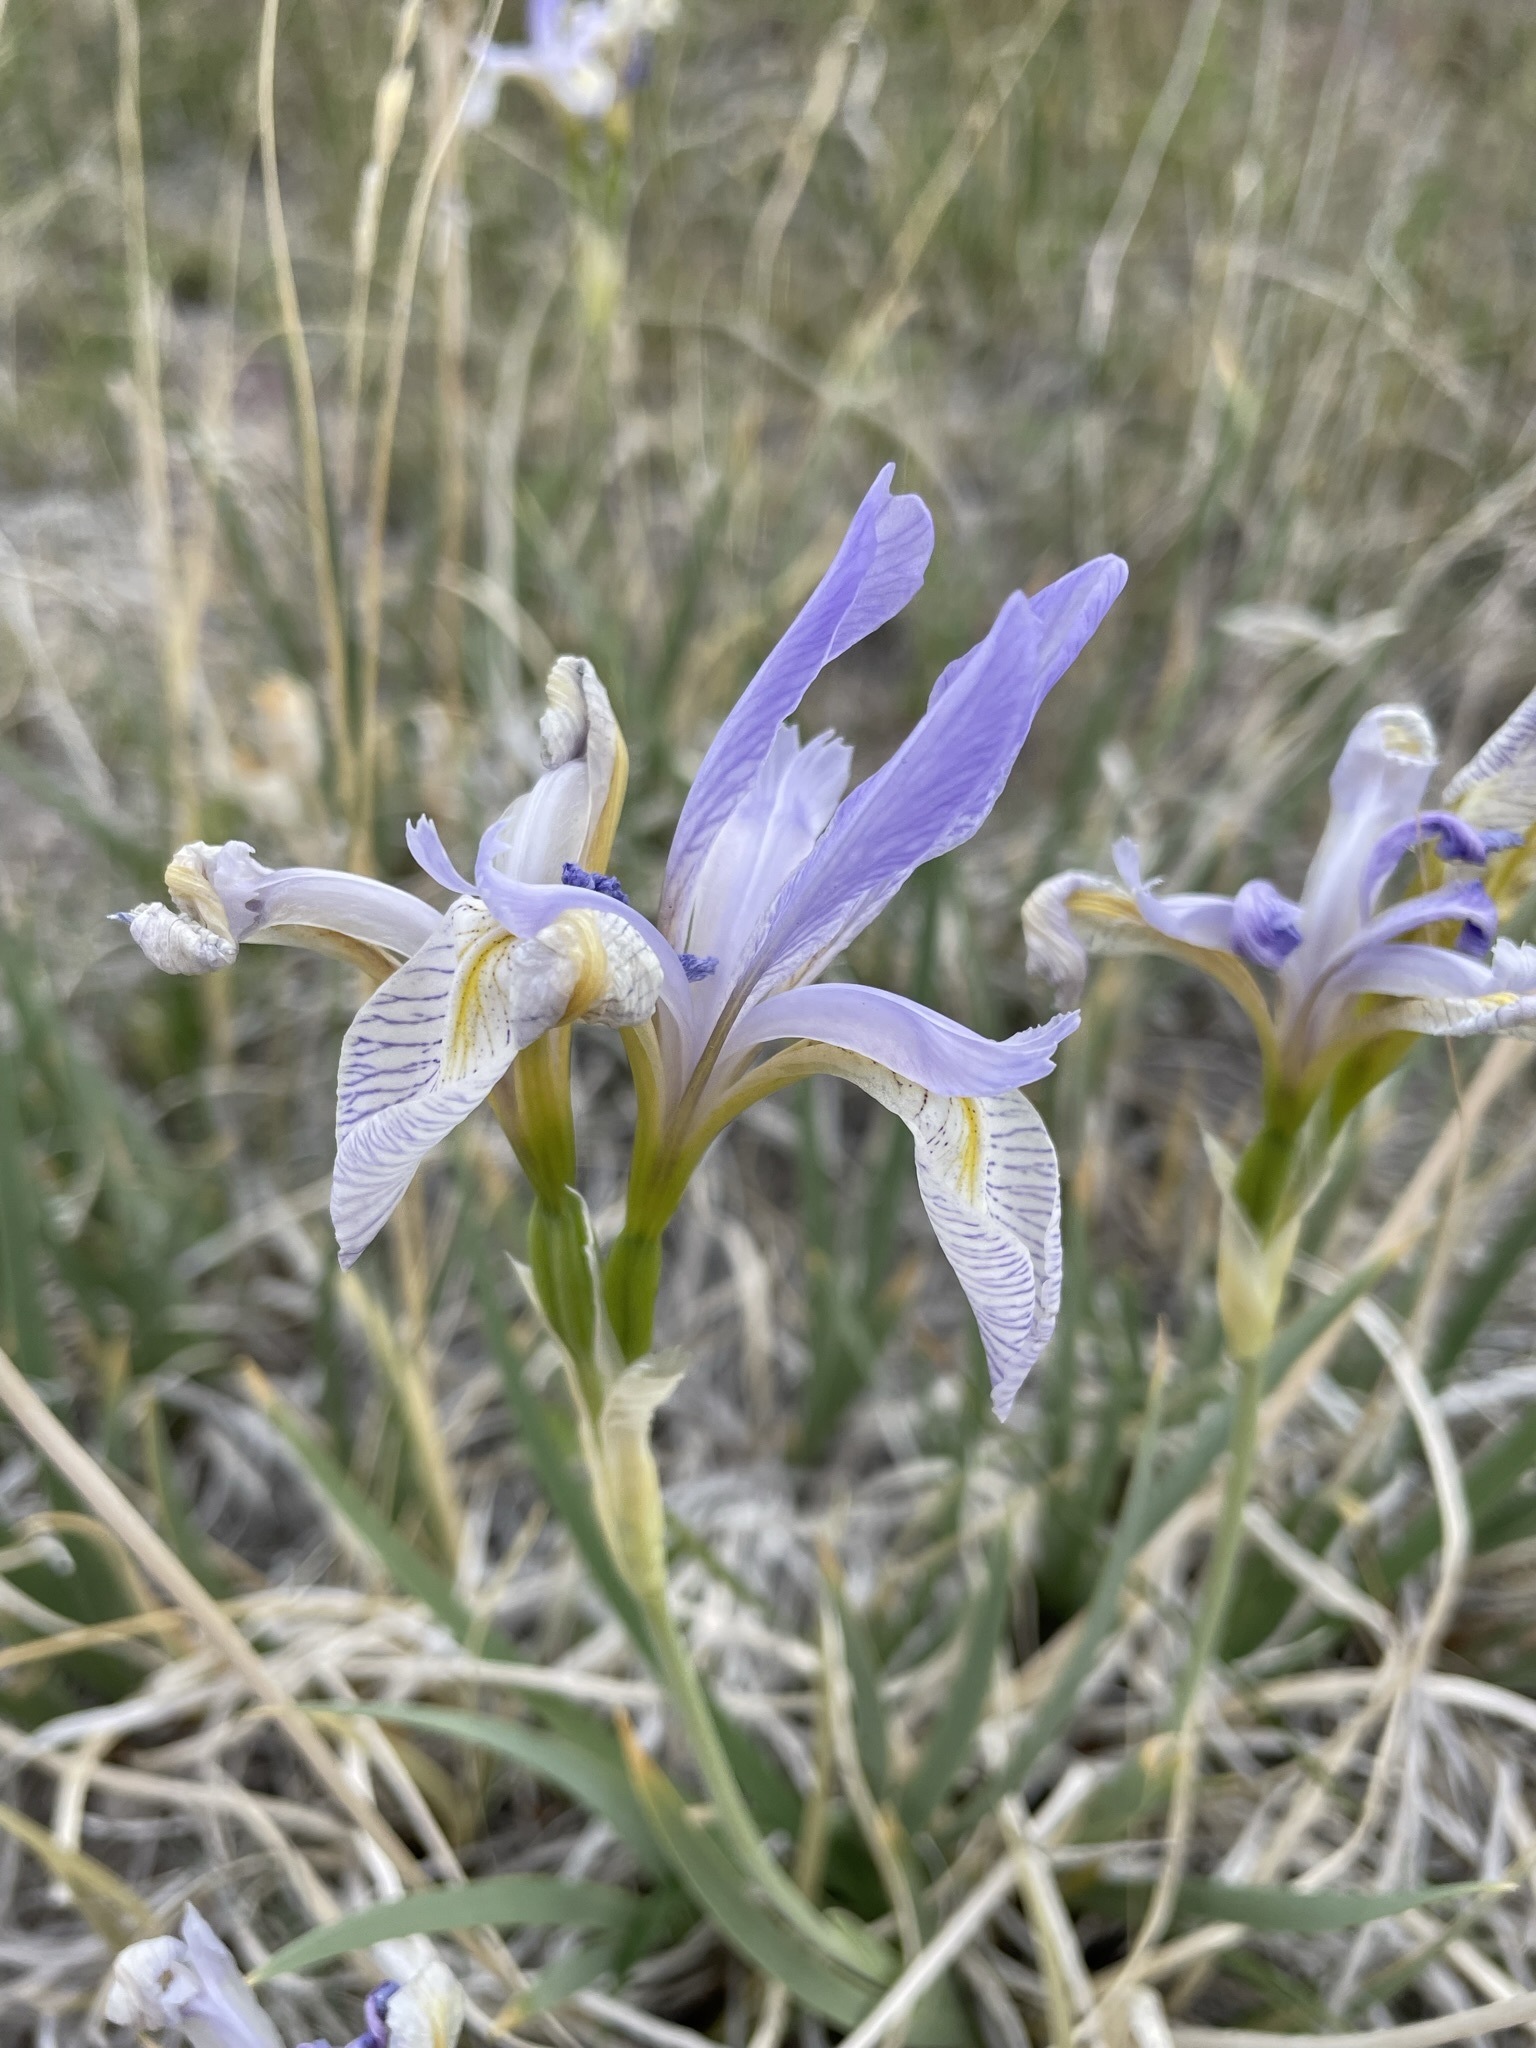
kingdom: Plantae
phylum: Tracheophyta
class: Liliopsida
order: Asparagales
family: Iridaceae
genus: Iris
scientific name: Iris missouriensis
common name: Rocky mountain iris
